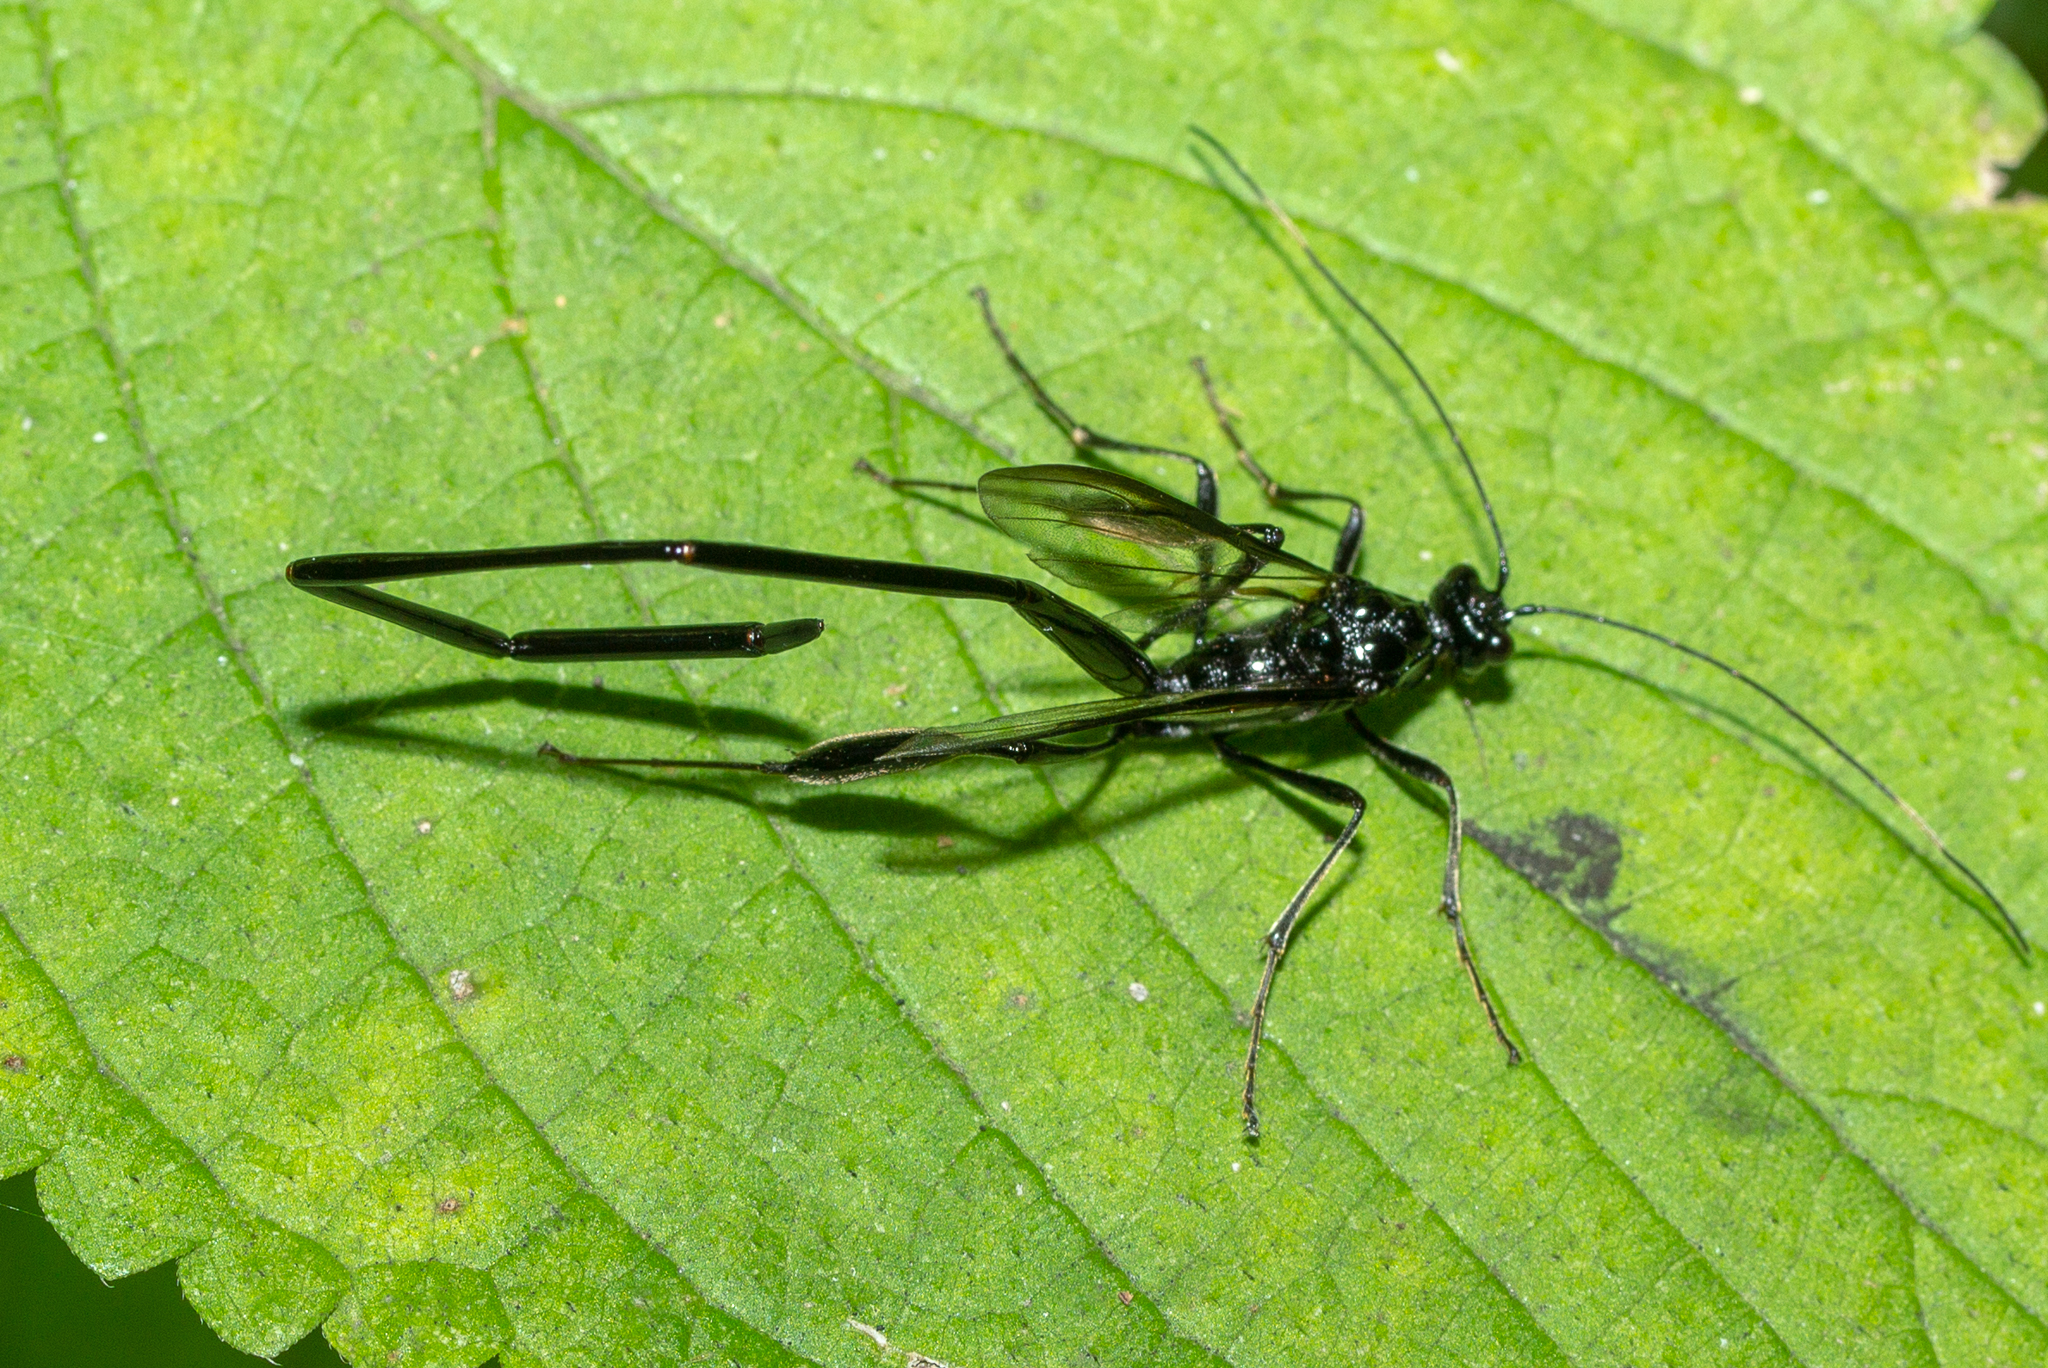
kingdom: Animalia
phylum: Arthropoda
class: Insecta
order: Hymenoptera
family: Pelecinidae
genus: Pelecinus
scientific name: Pelecinus polyturator
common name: American pelecinid wasp
